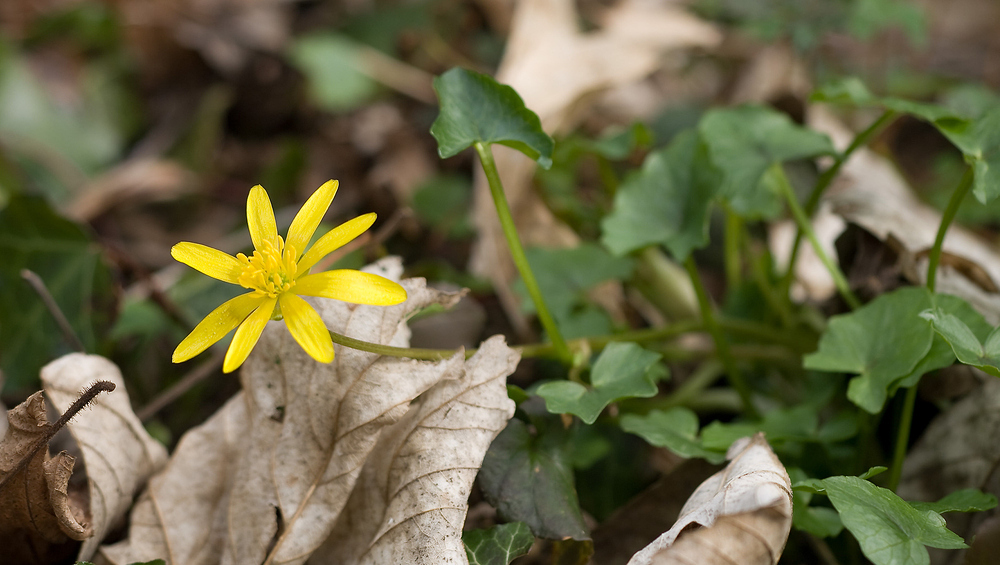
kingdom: Plantae
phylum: Tracheophyta
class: Magnoliopsida
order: Ranunculales
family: Ranunculaceae
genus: Ficaria
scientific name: Ficaria verna
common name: Lesser celandine
